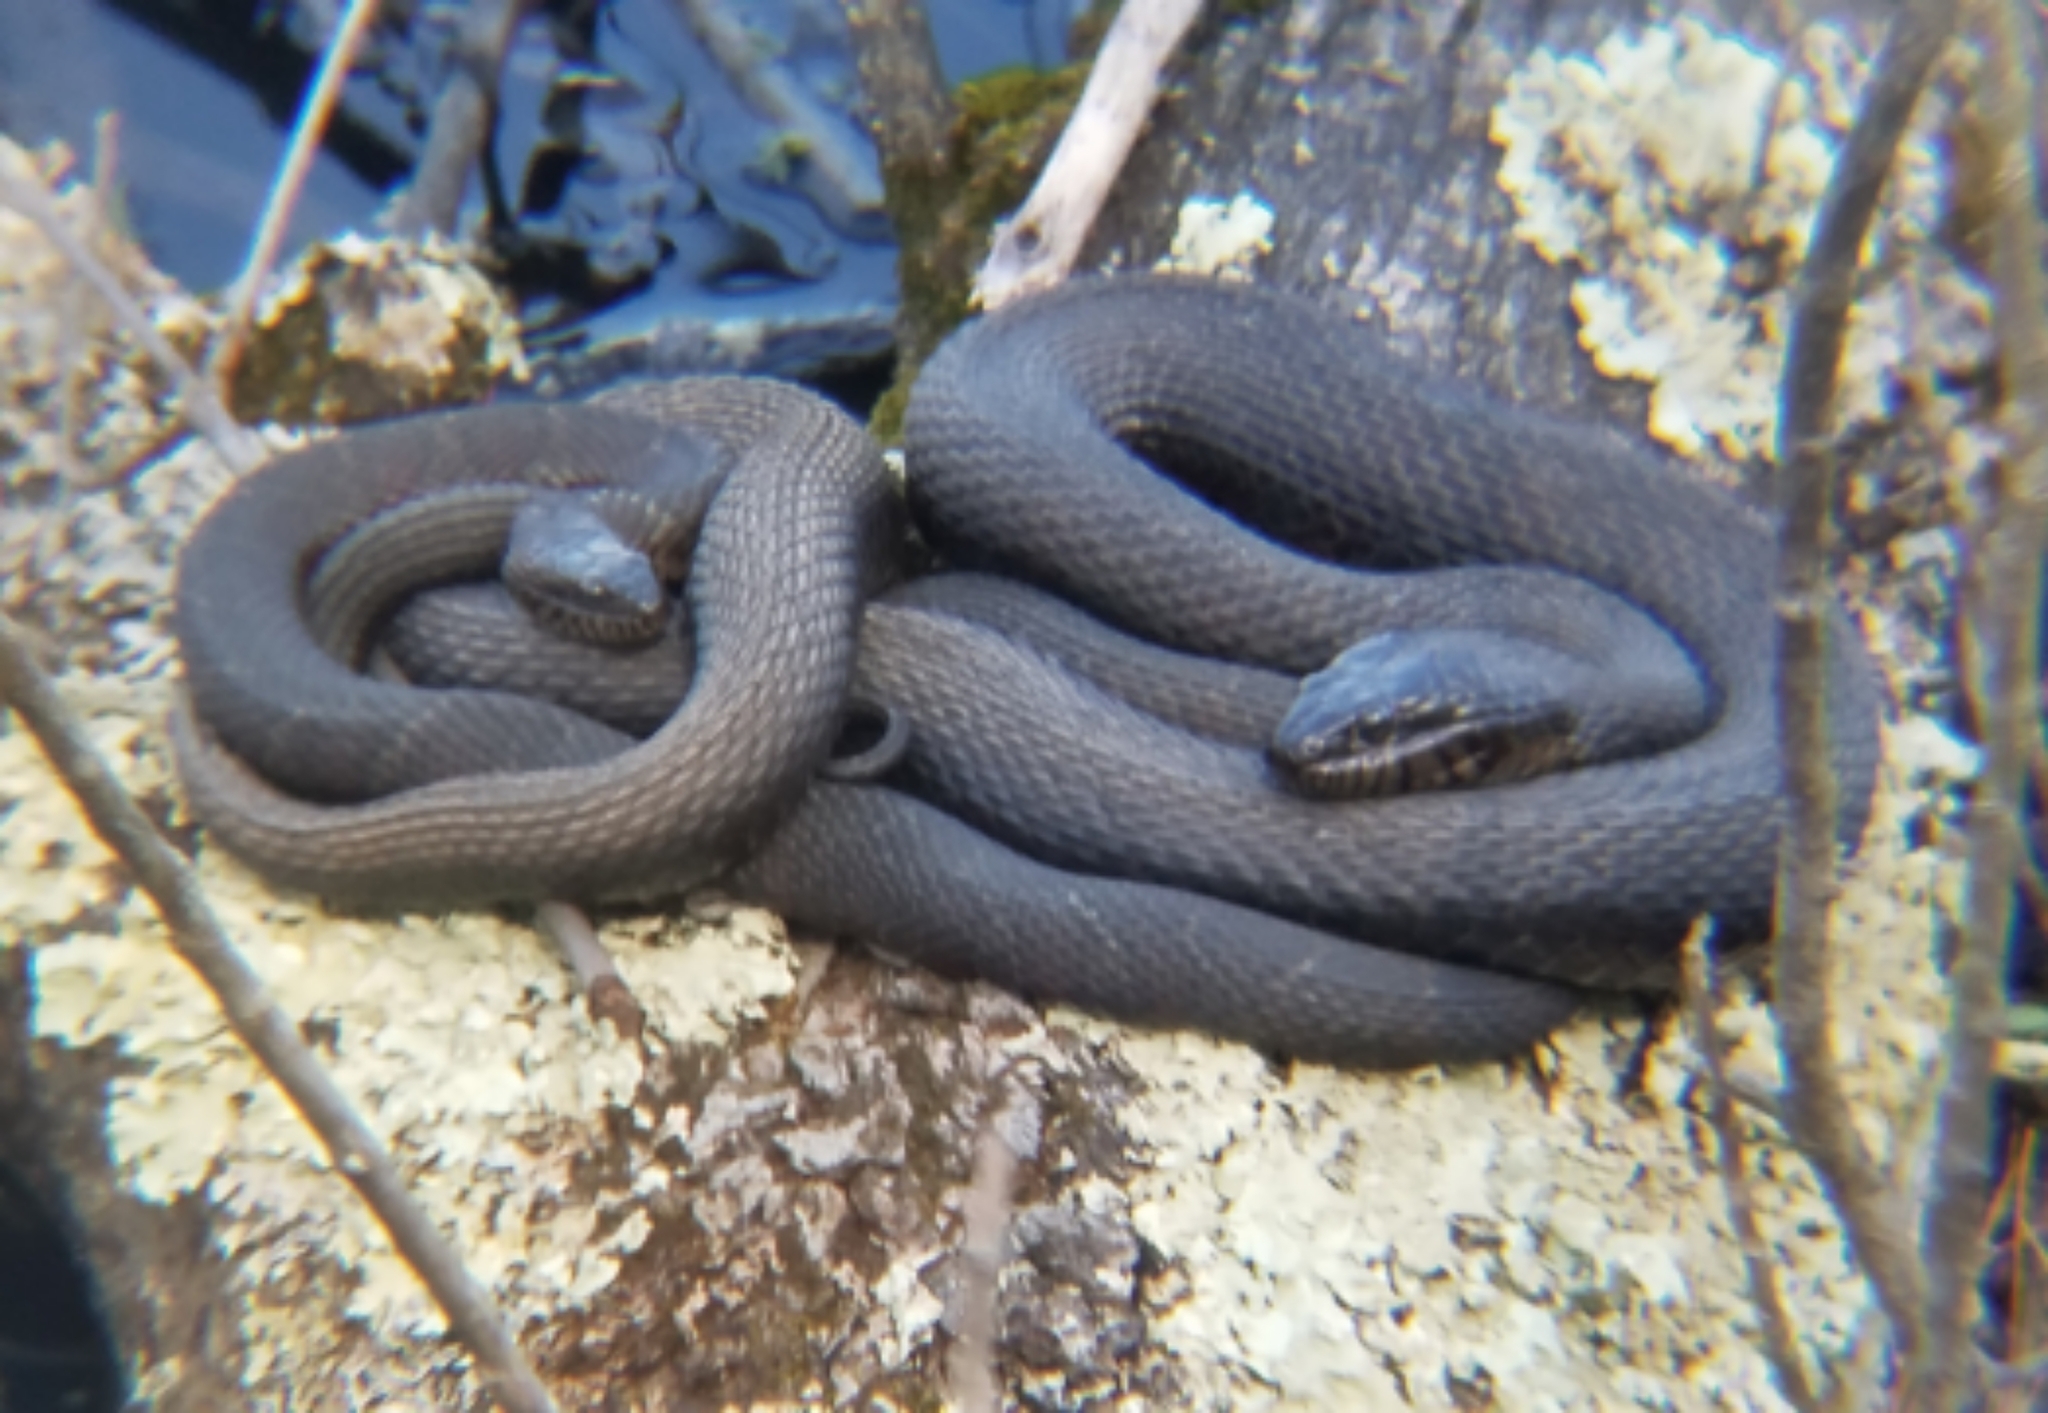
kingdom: Animalia
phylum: Chordata
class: Squamata
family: Colubridae
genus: Nerodia
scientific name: Nerodia sipedon
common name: Northern water snake
